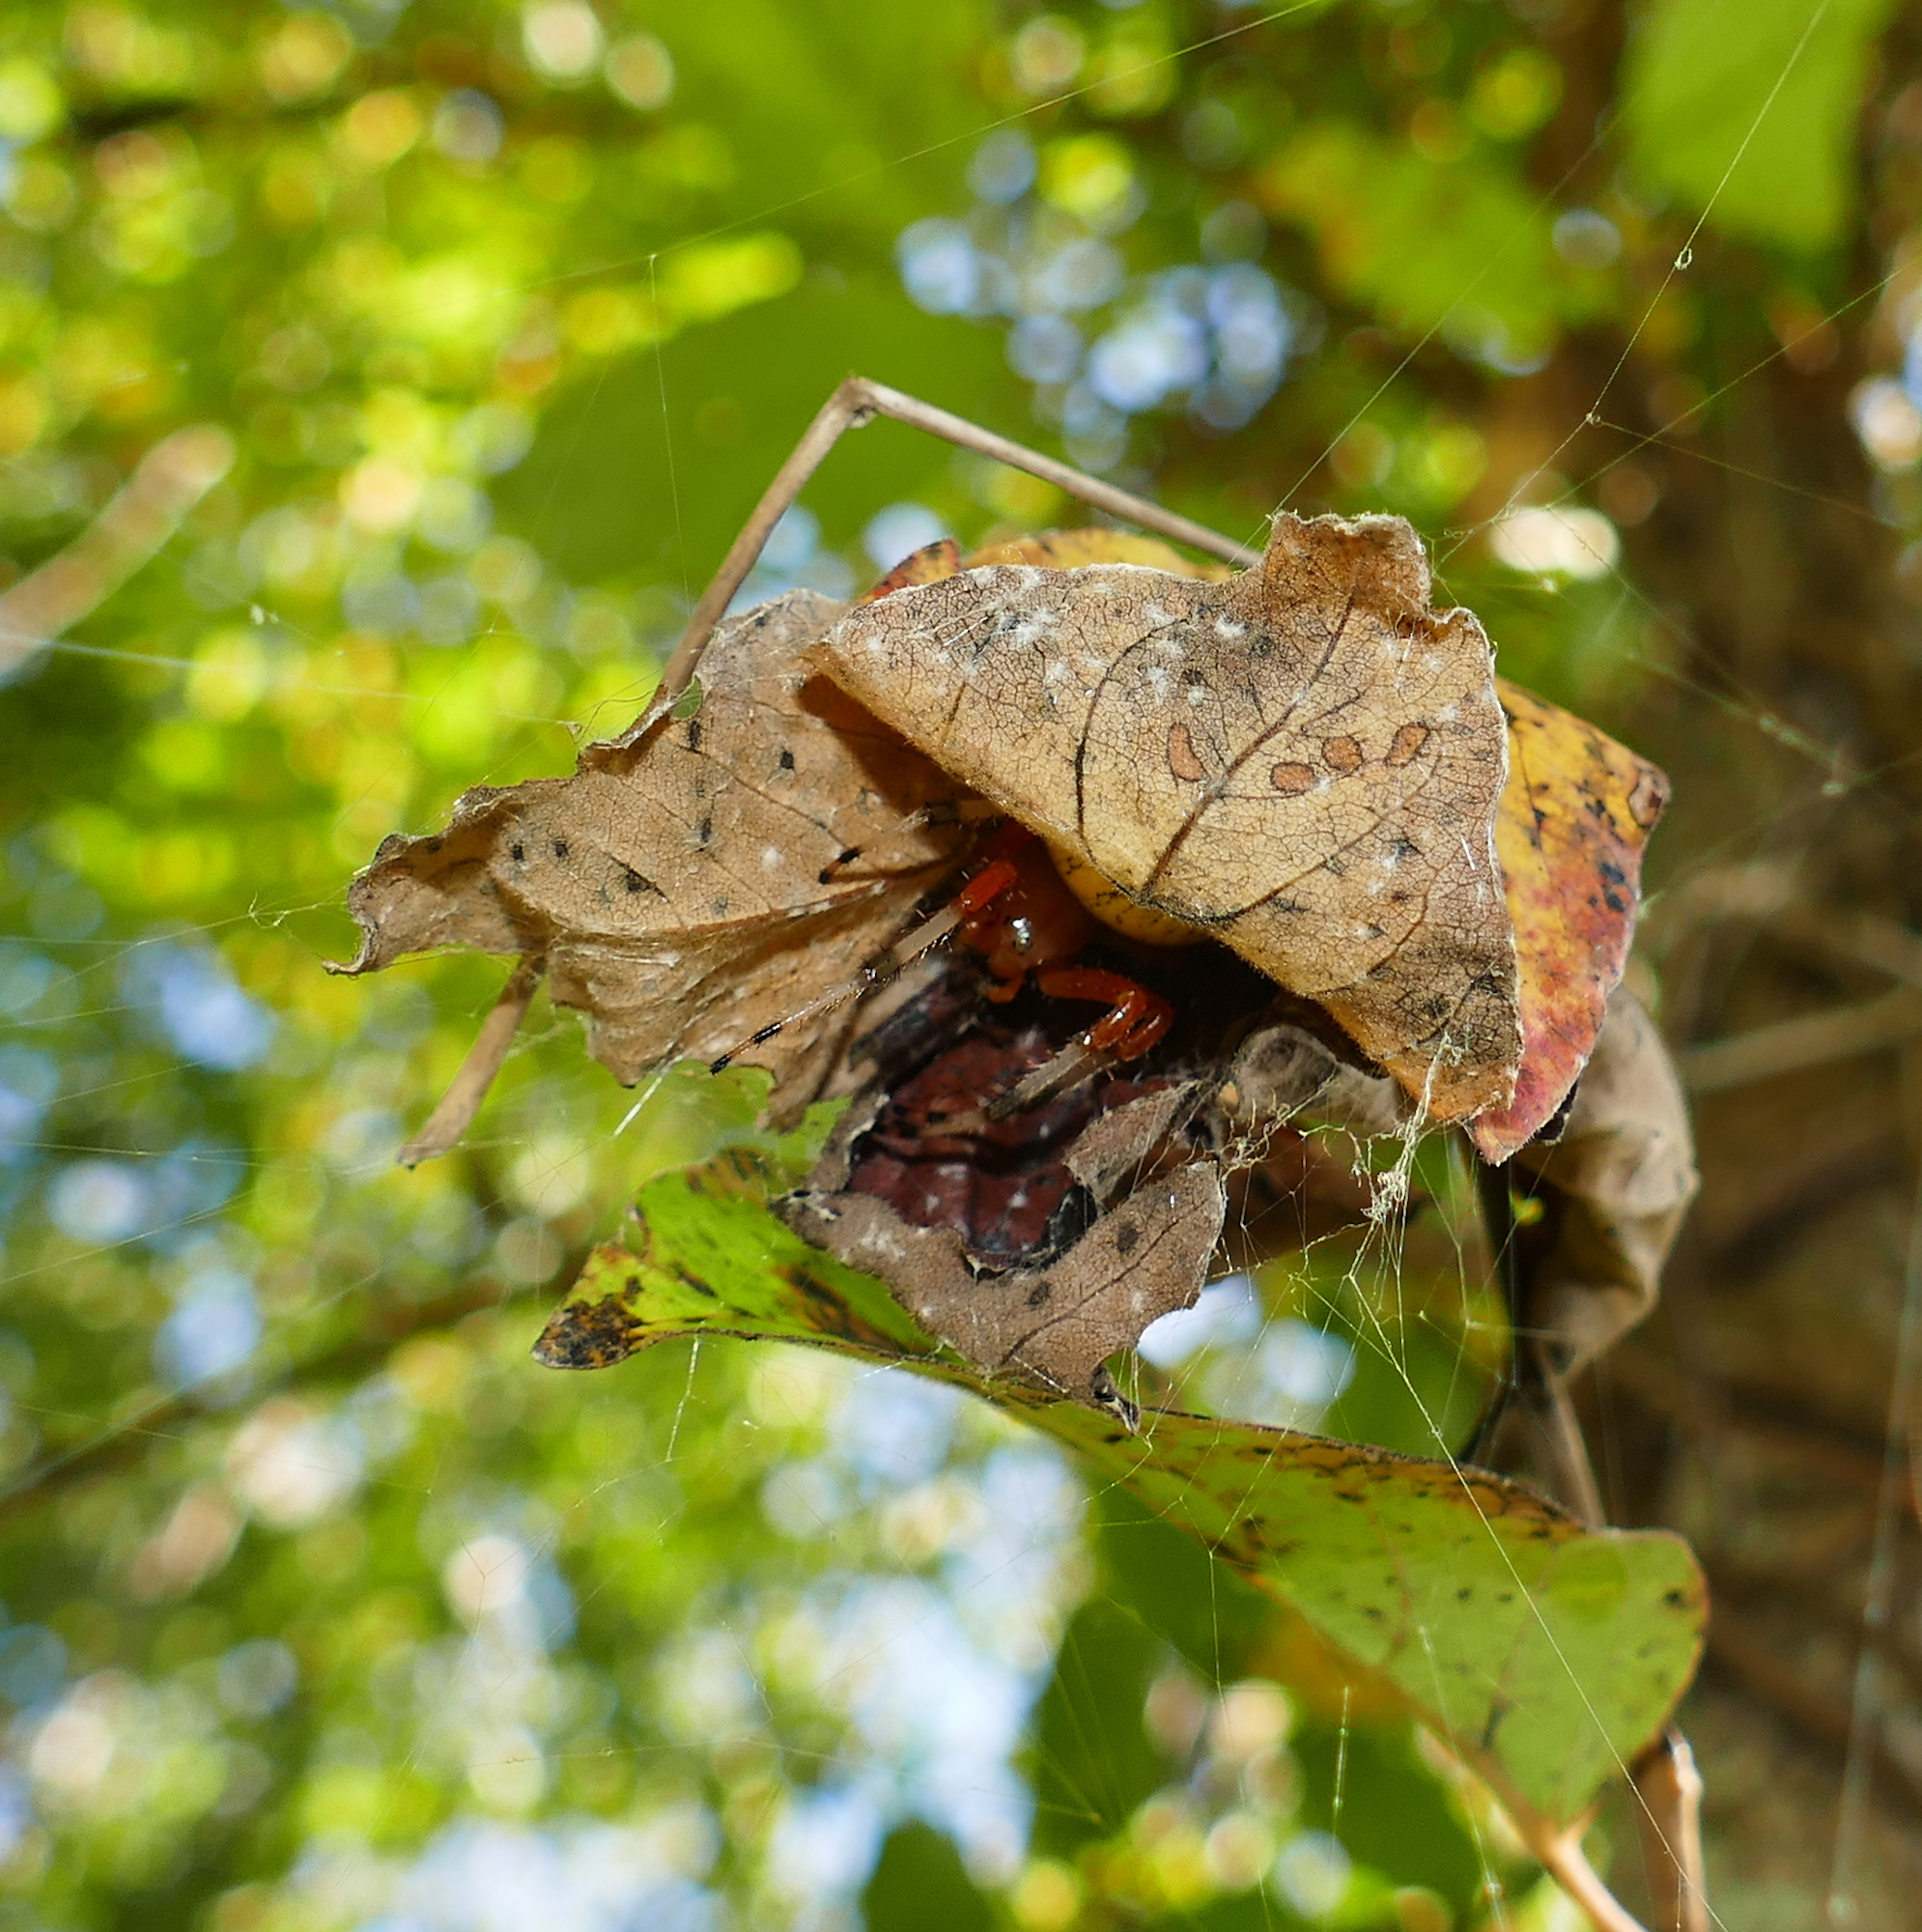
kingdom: Animalia
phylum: Arthropoda
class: Arachnida
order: Araneae
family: Araneidae
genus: Araneus
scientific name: Araneus marmoreus
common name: Marbled orbweaver
